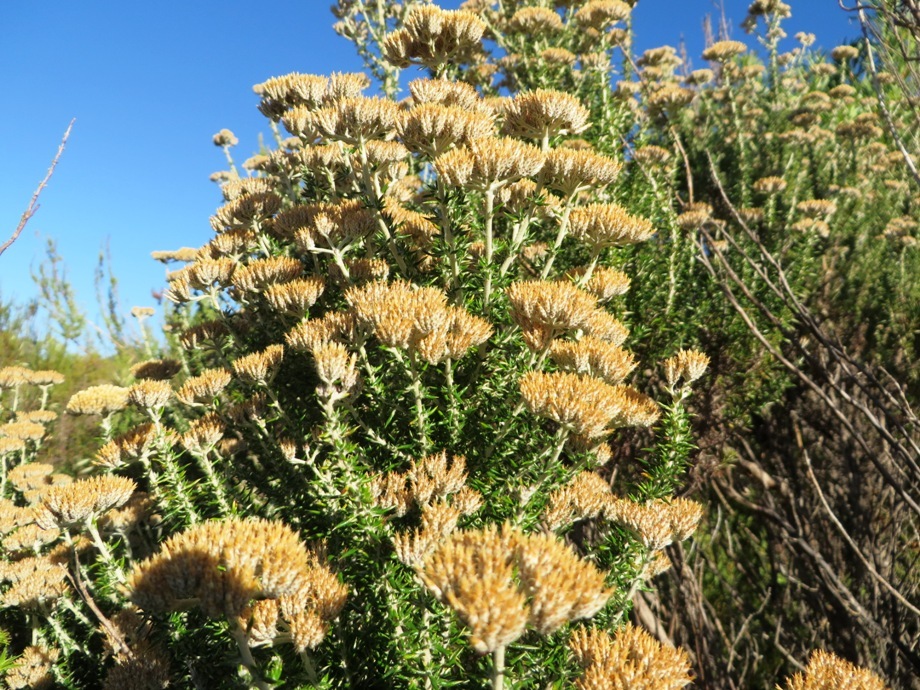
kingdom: Plantae
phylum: Tracheophyta
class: Magnoliopsida
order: Asterales
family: Asteraceae
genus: Metalasia
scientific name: Metalasia densa
